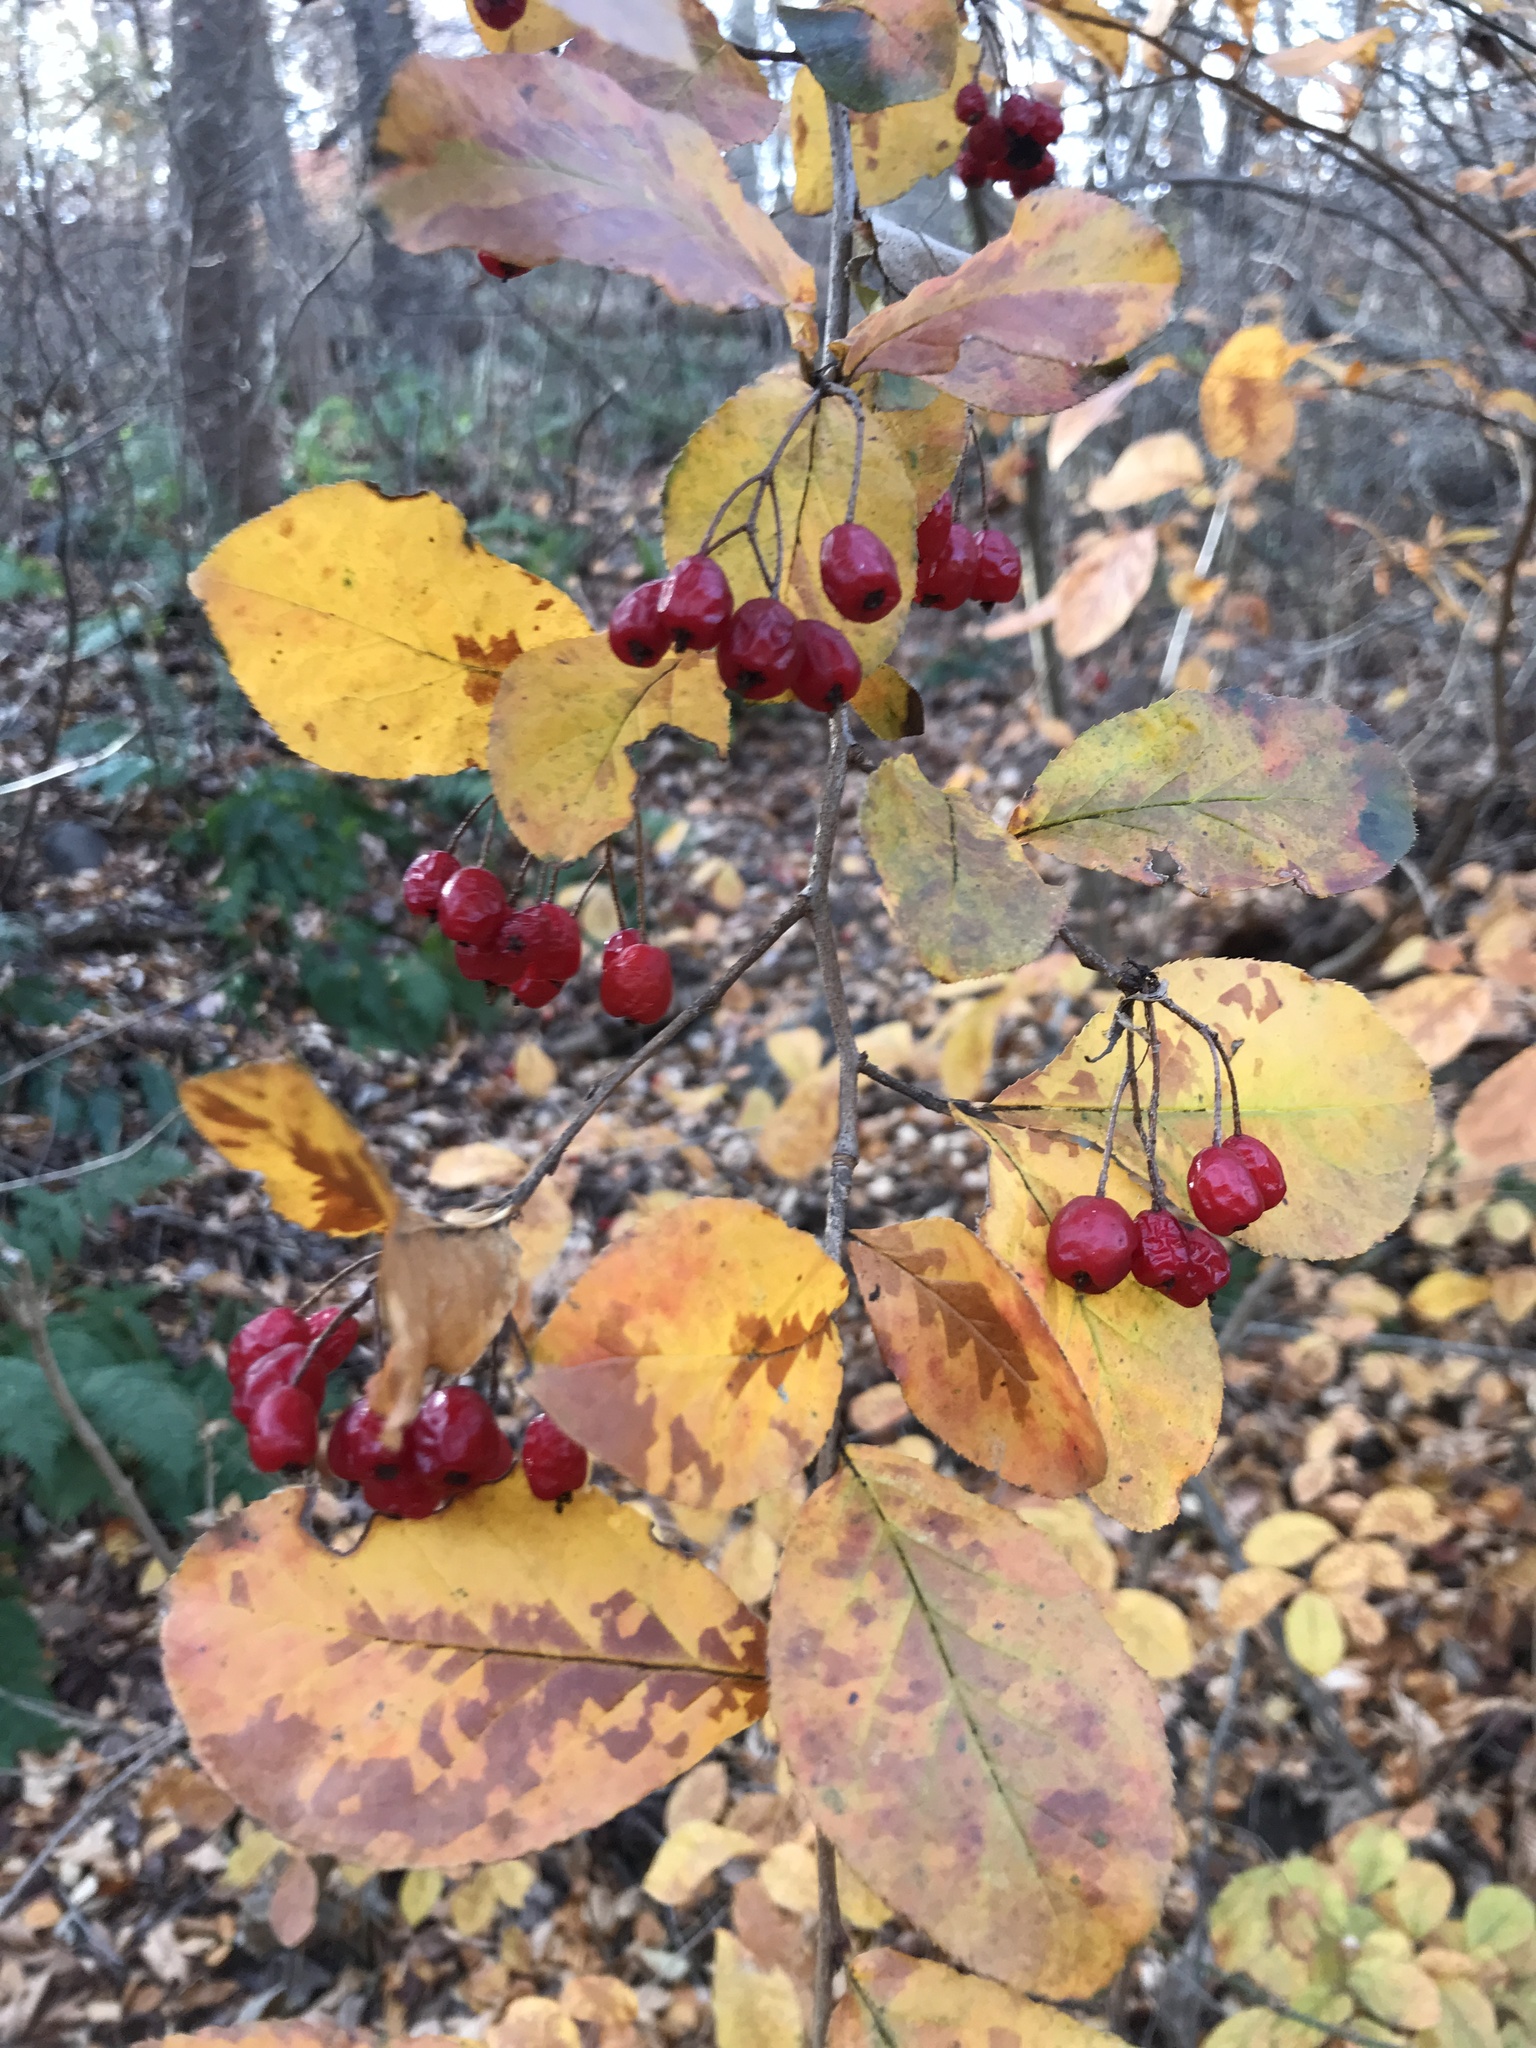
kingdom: Plantae
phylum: Tracheophyta
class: Magnoliopsida
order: Rosales
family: Rosaceae
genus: Pourthiaea
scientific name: Pourthiaea villosa
